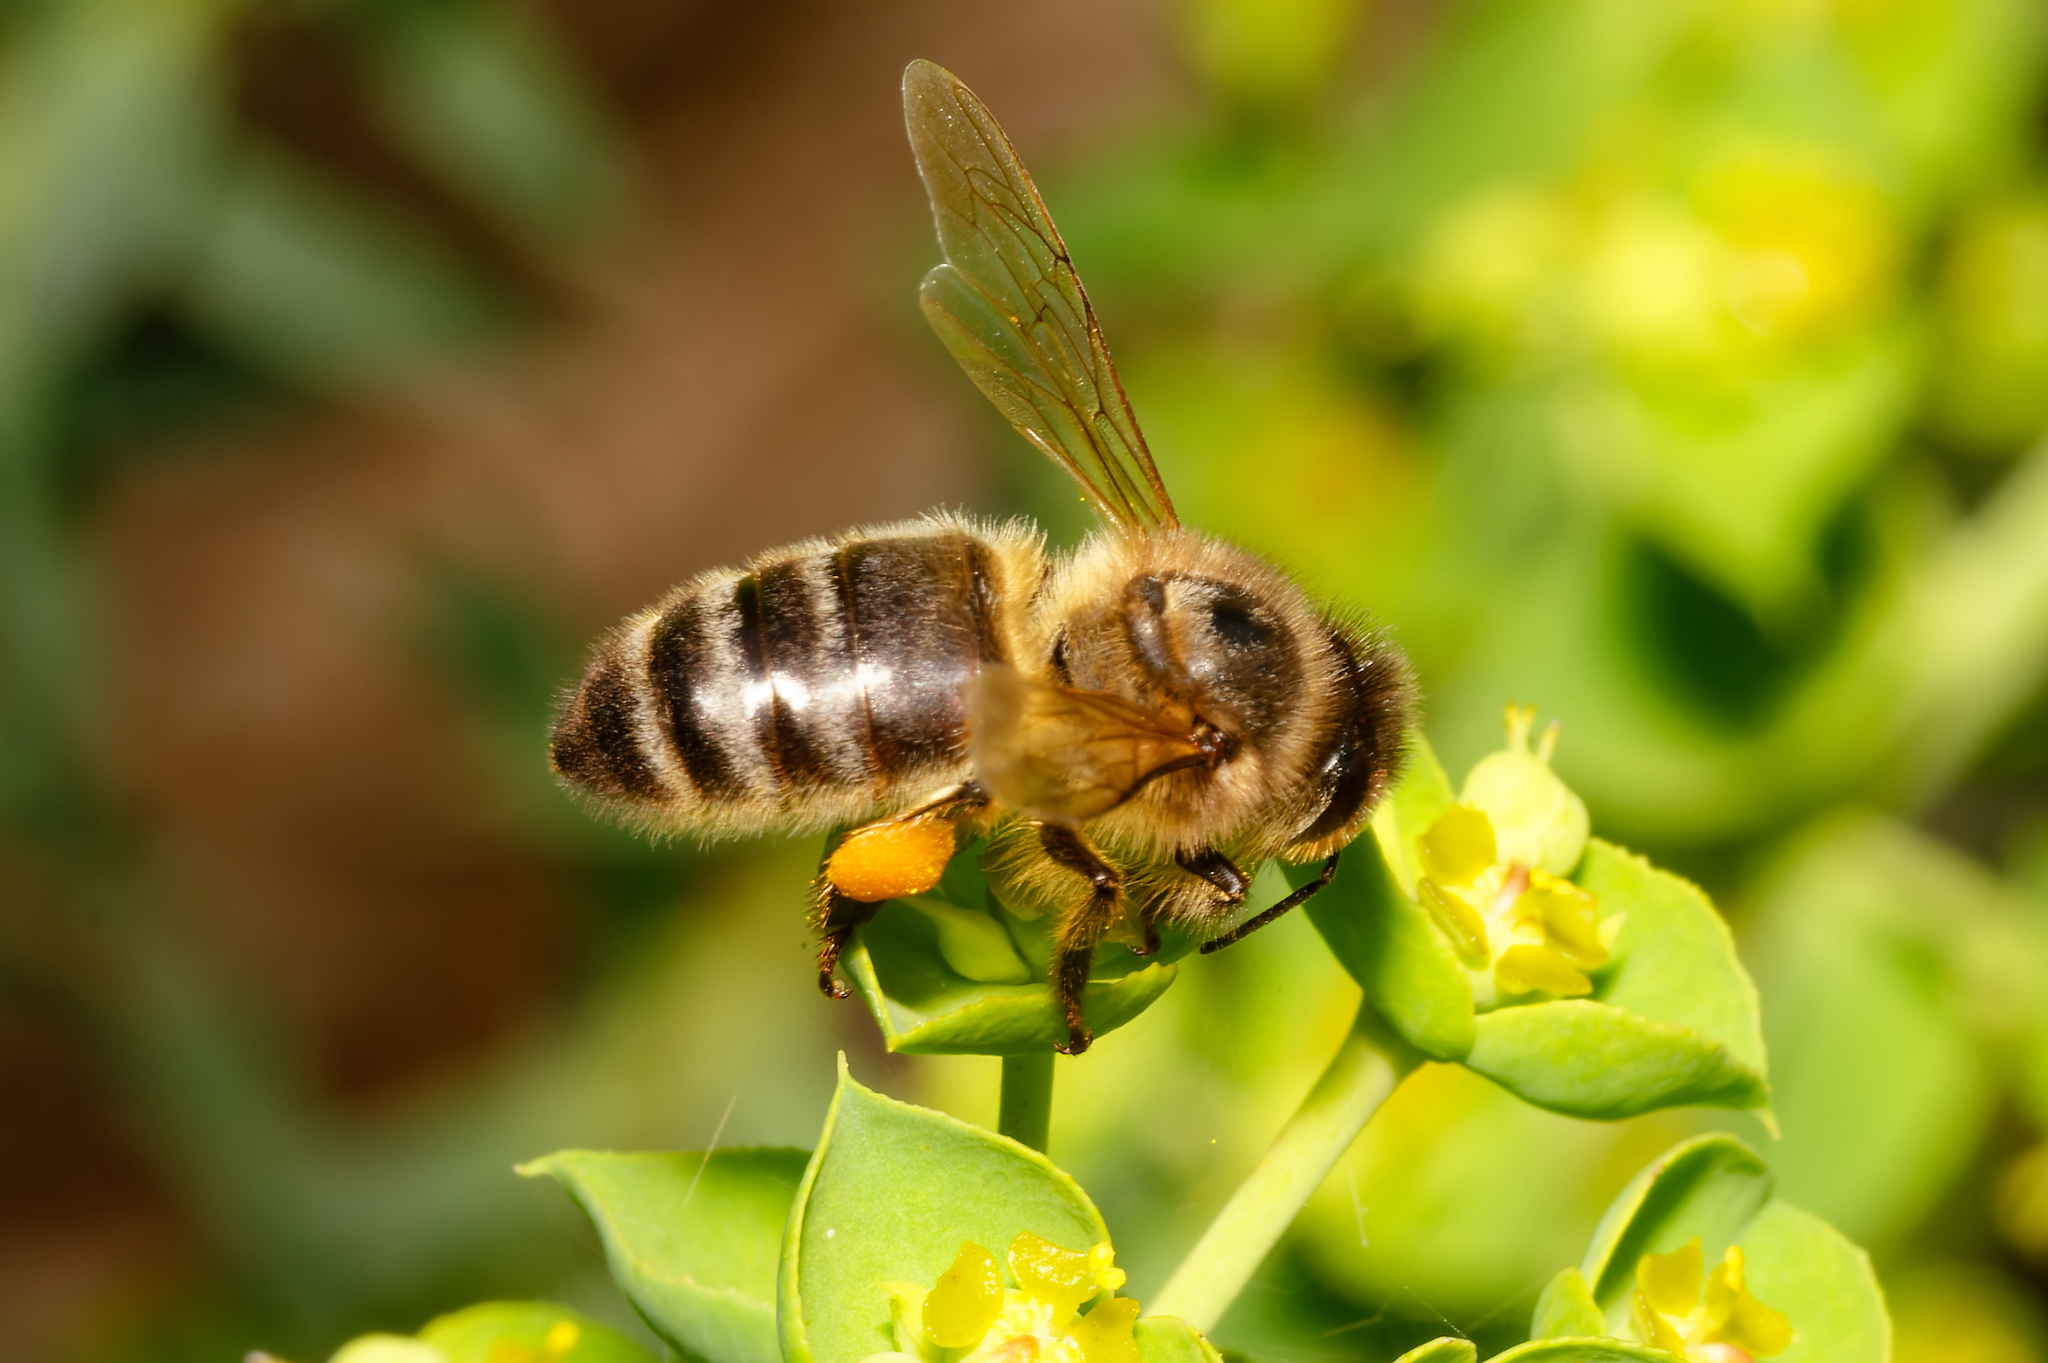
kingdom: Animalia
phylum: Arthropoda
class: Insecta
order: Hymenoptera
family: Apidae
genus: Apis
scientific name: Apis mellifera
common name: Honey bee
